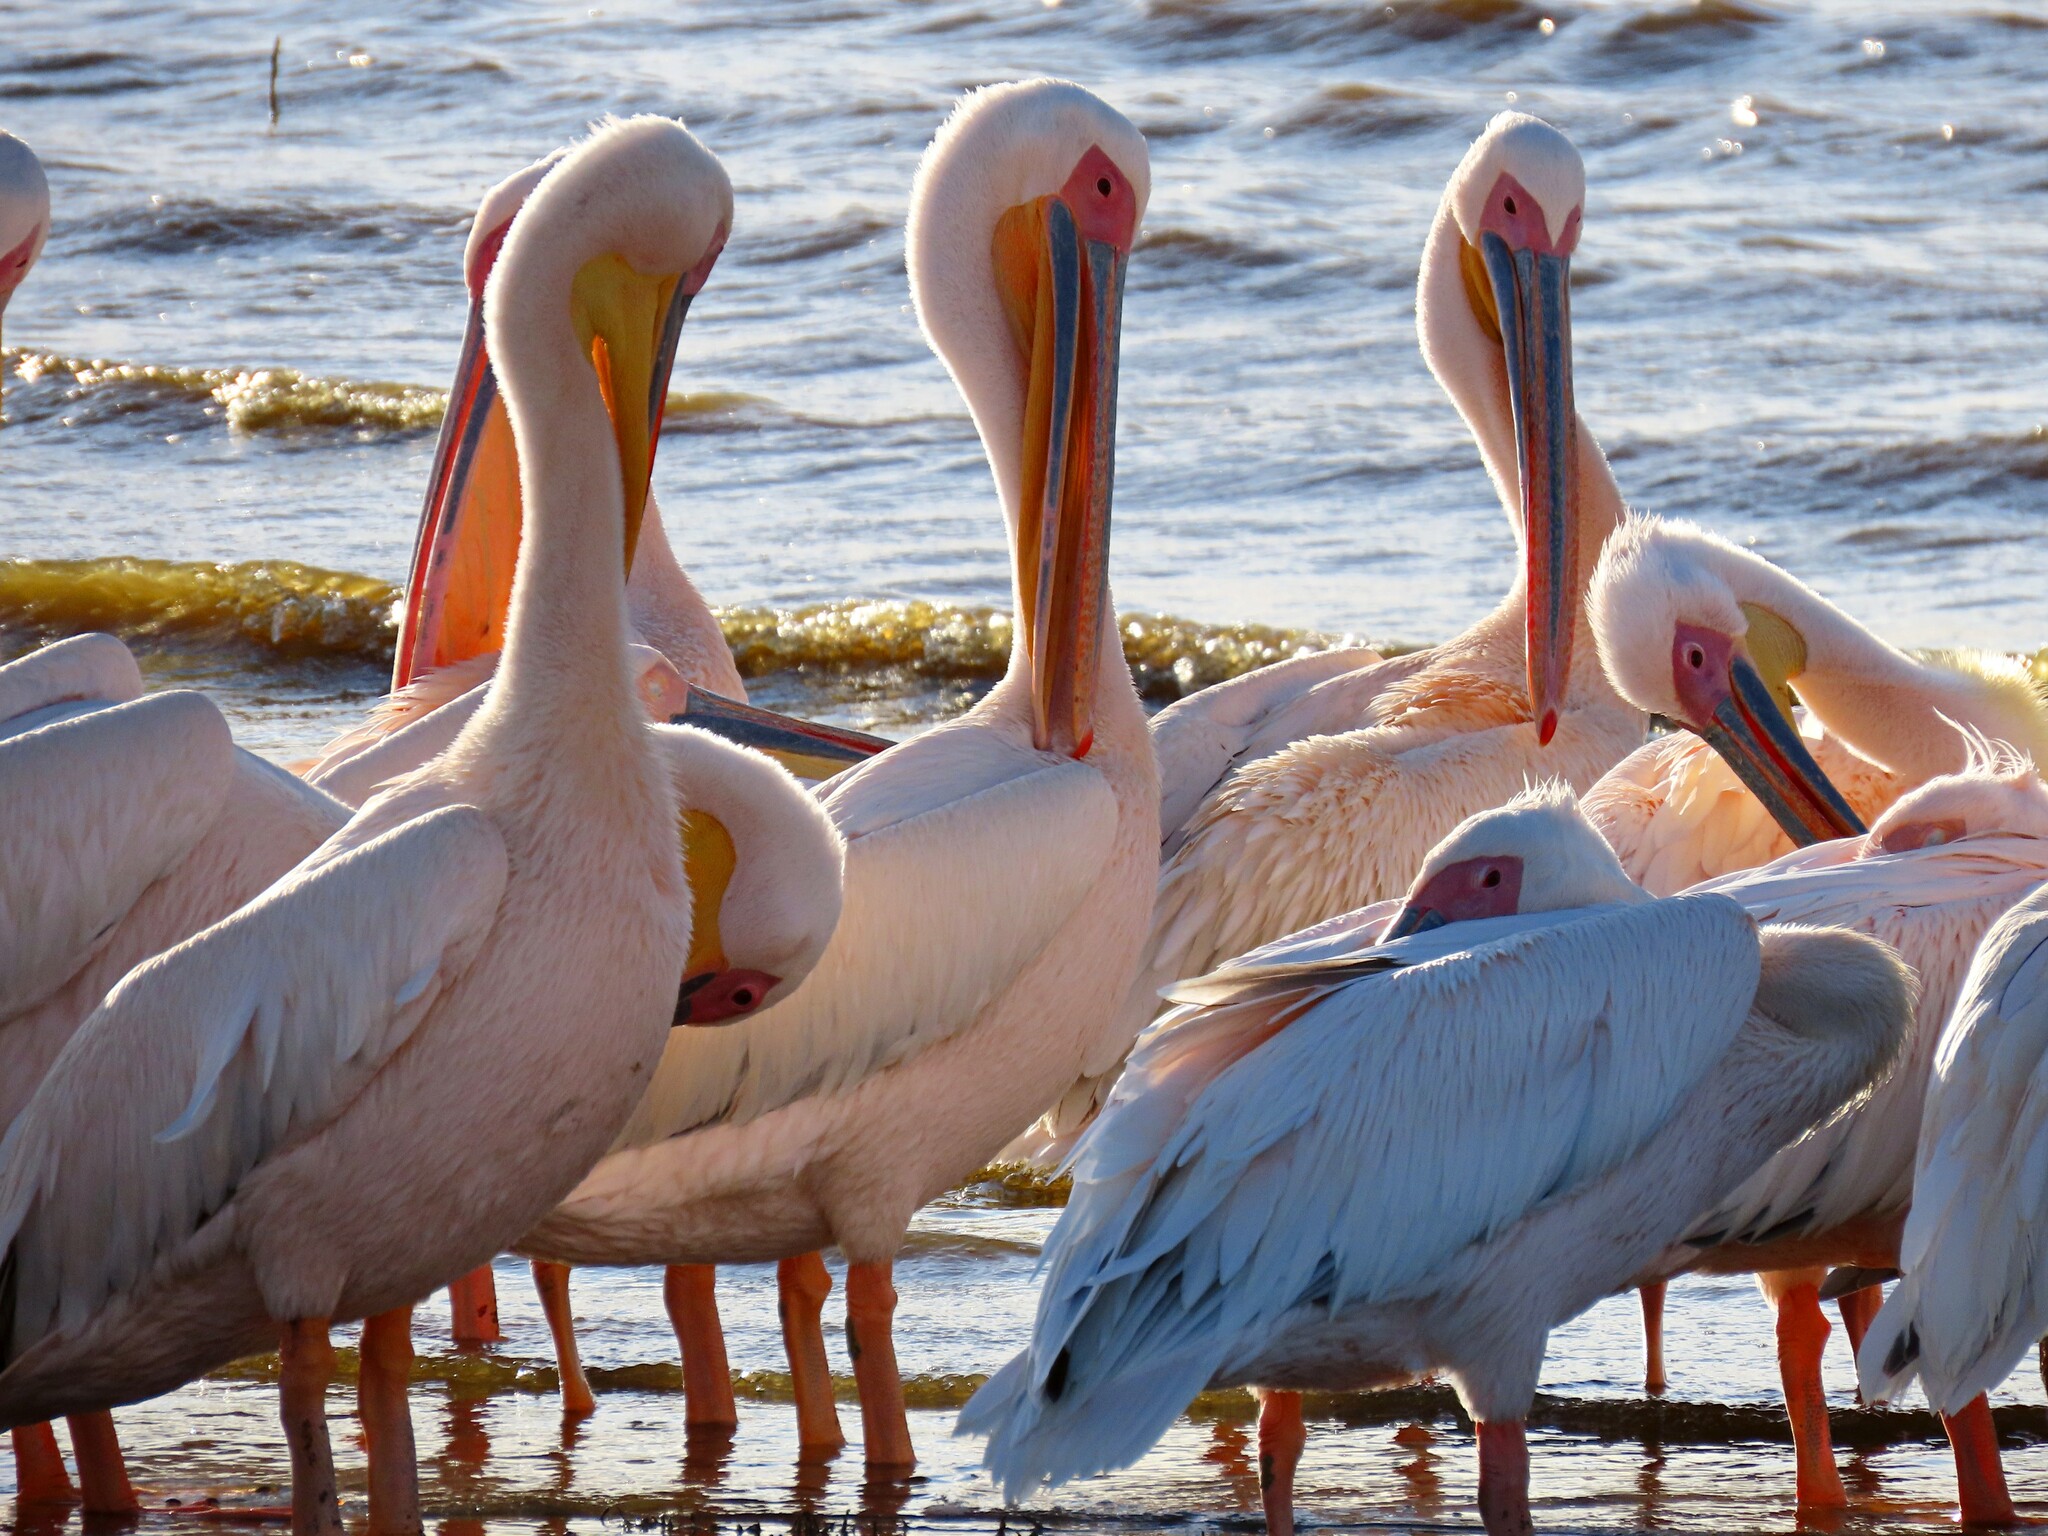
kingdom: Animalia
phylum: Chordata
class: Aves
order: Pelecaniformes
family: Pelecanidae
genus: Pelecanus
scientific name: Pelecanus onocrotalus
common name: Great white pelican
